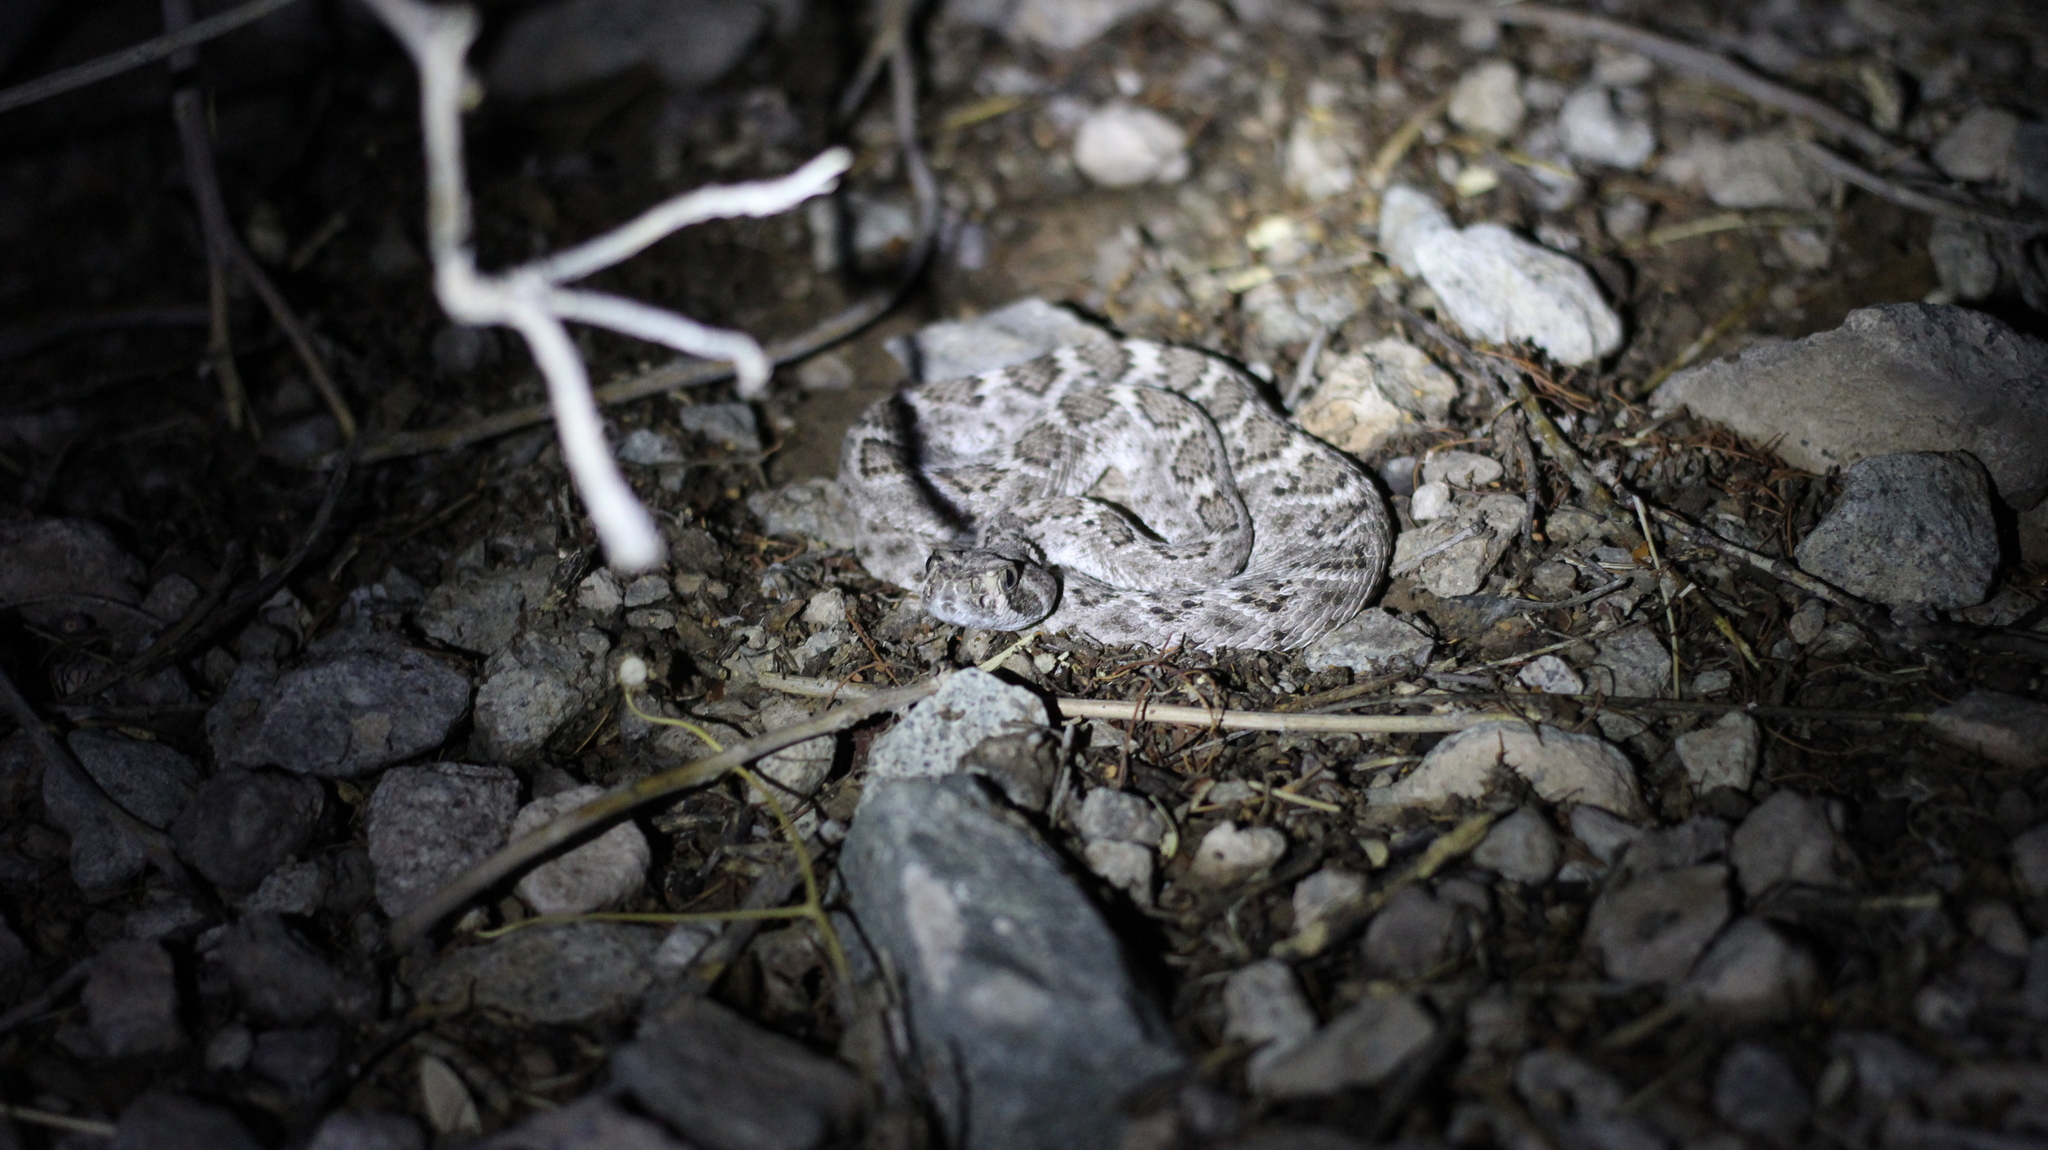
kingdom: Animalia
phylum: Chordata
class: Squamata
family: Viperidae
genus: Crotalus
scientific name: Crotalus atrox
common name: Western diamond-backed rattlesnake
